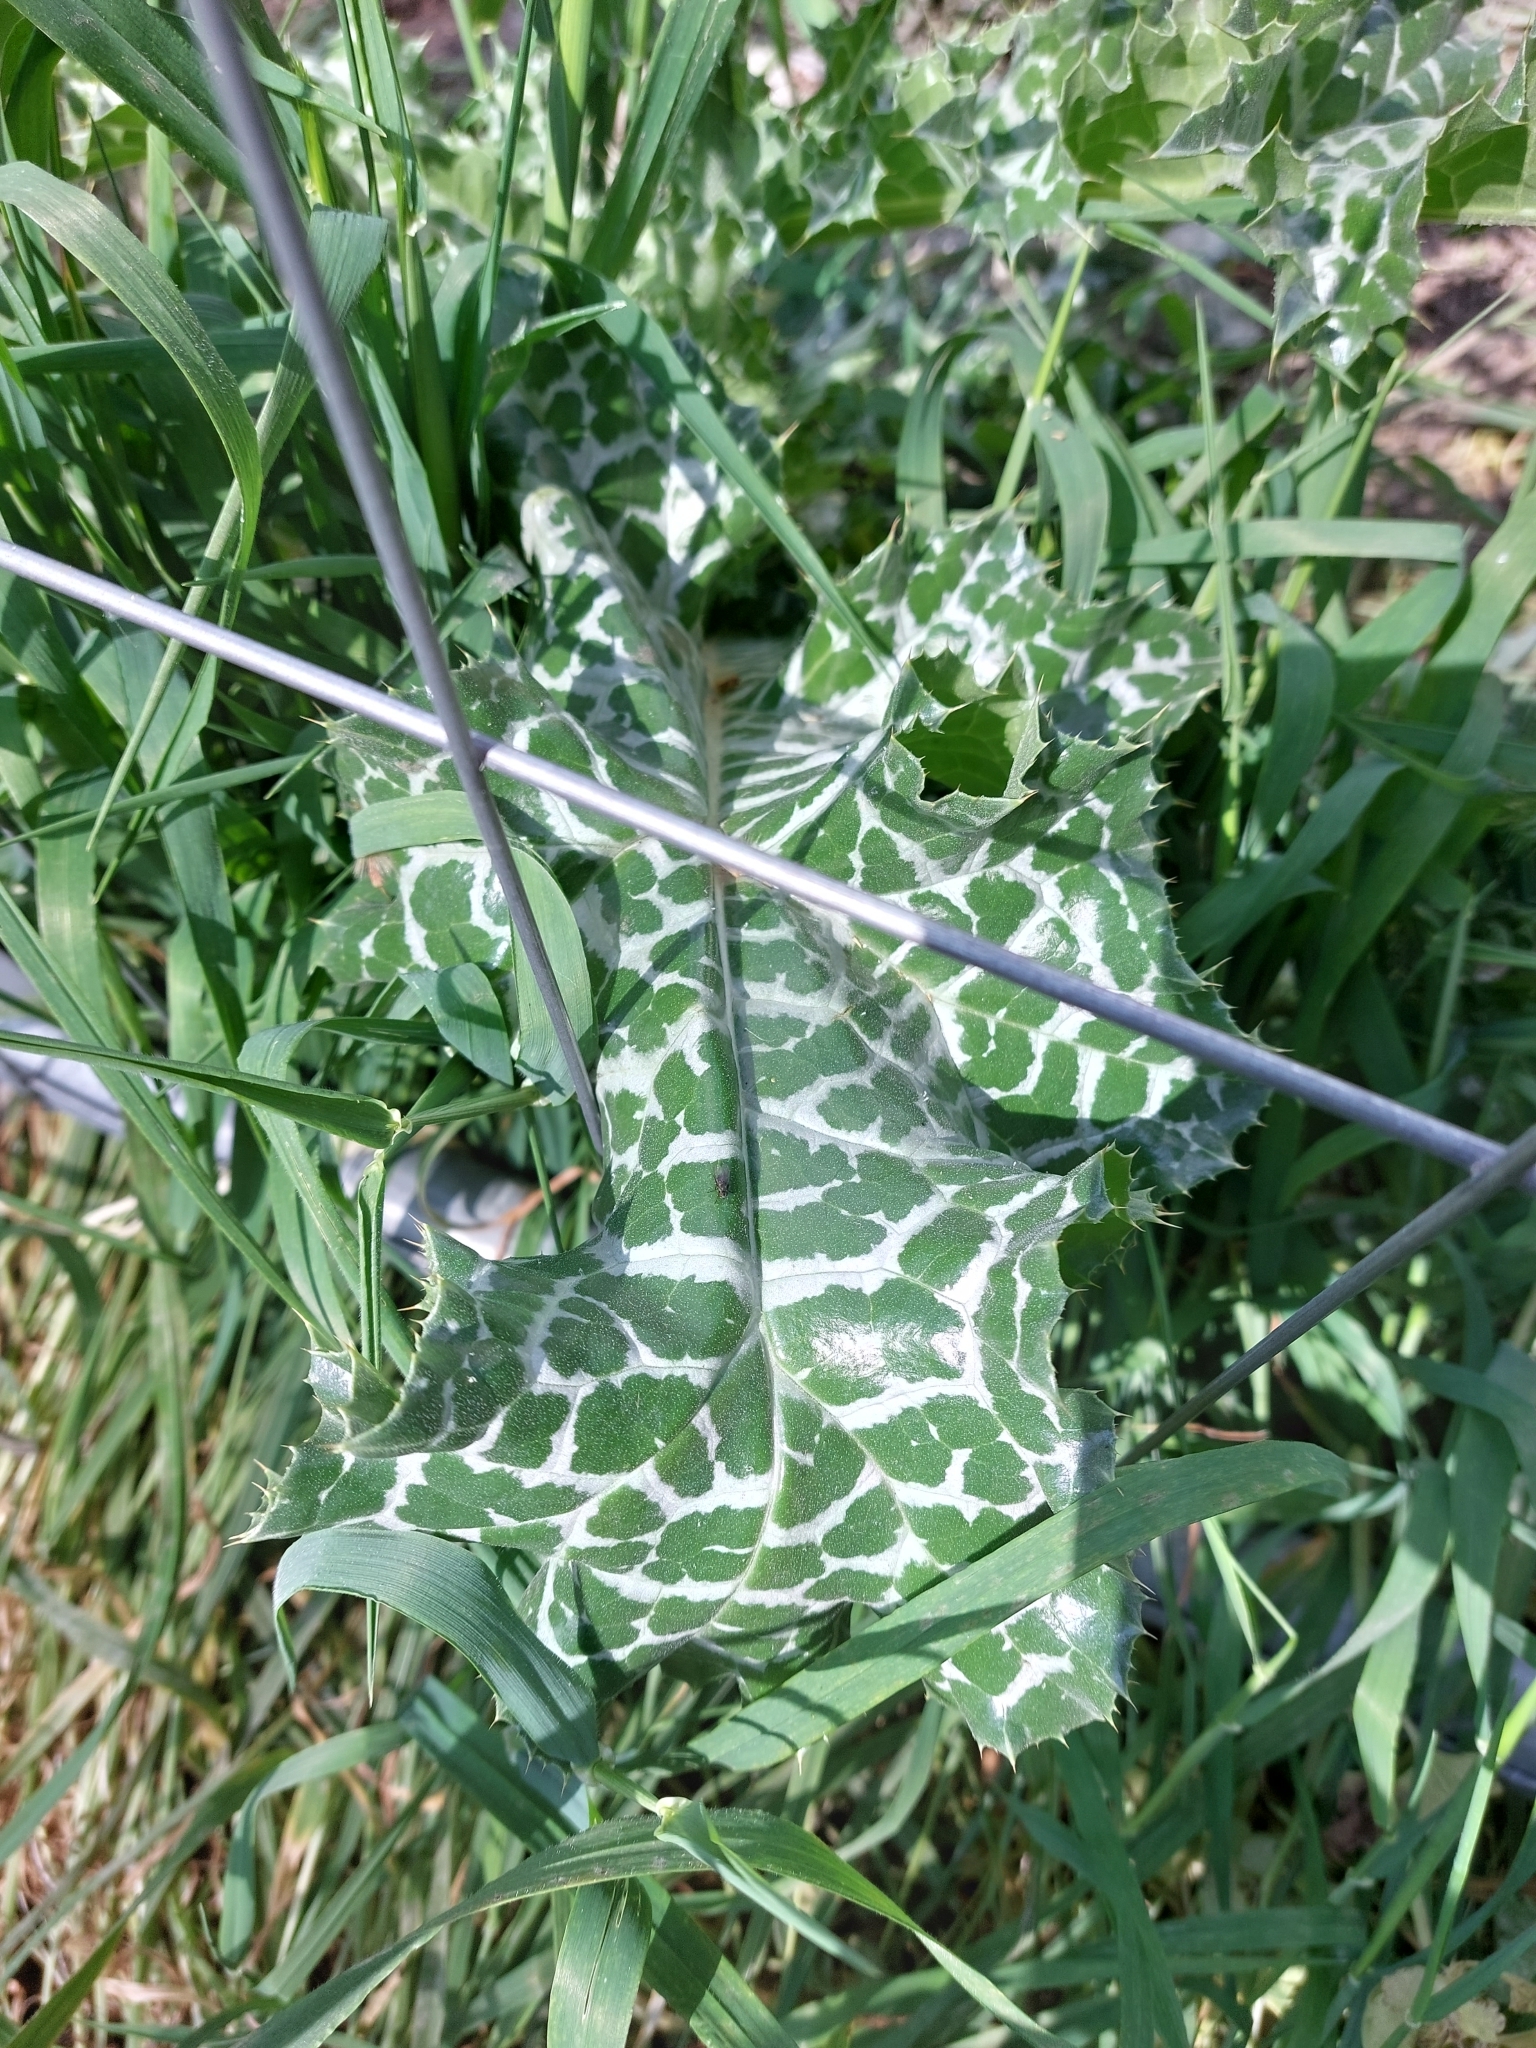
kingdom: Plantae
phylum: Tracheophyta
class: Magnoliopsida
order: Asterales
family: Asteraceae
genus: Silybum
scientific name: Silybum marianum
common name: Milk thistle
